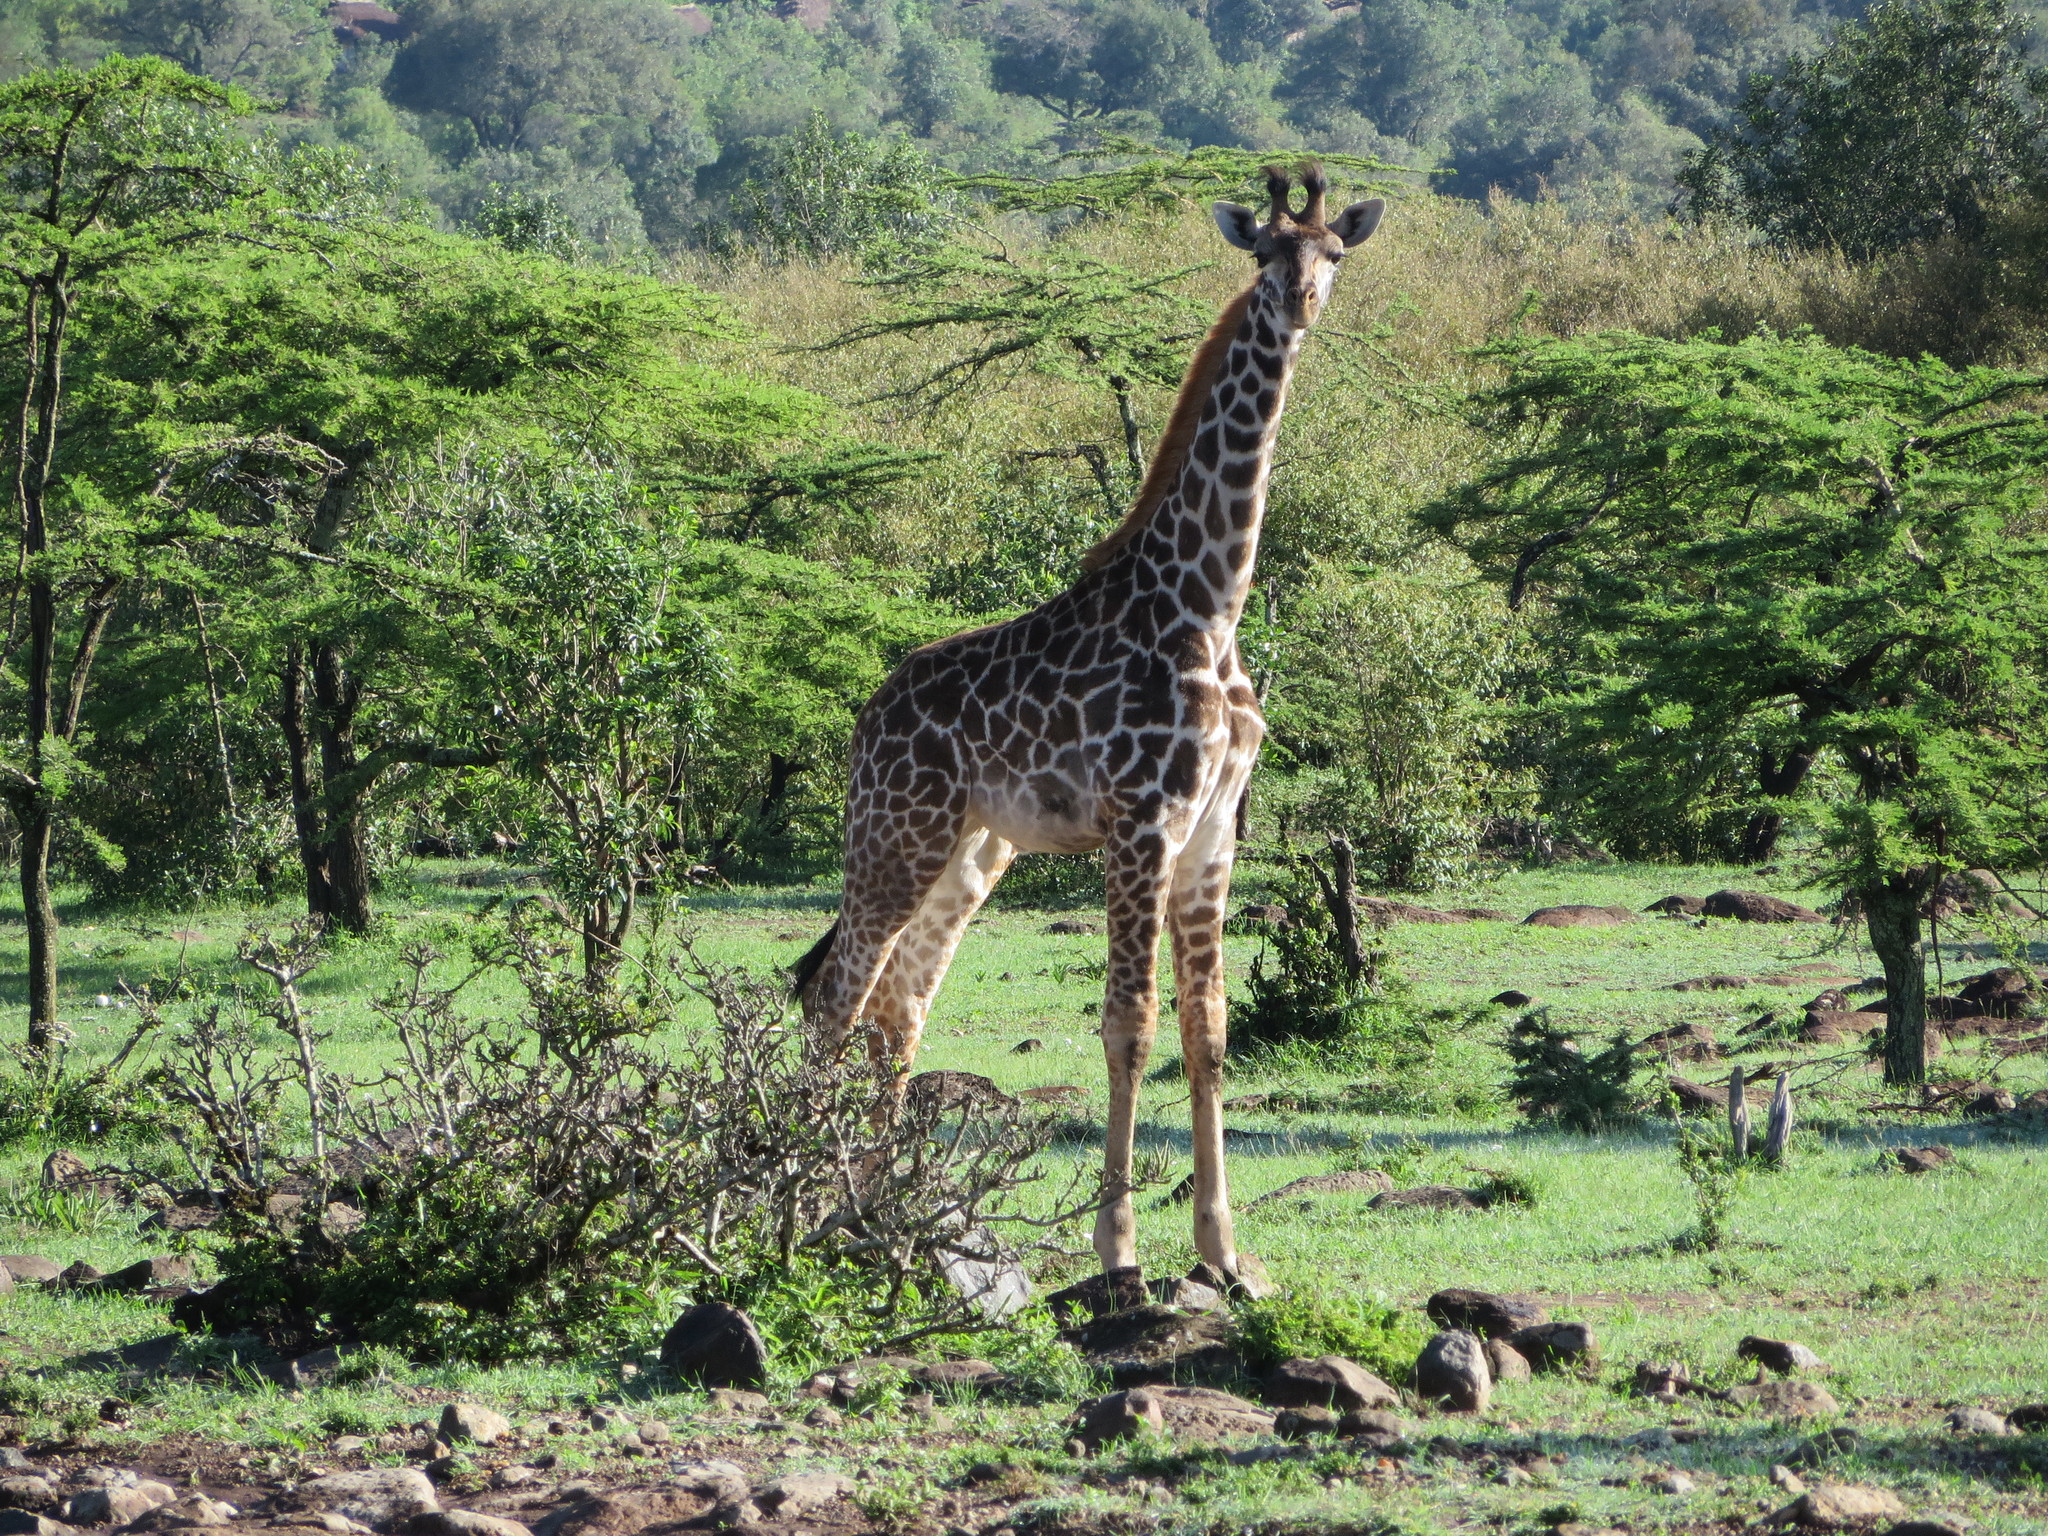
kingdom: Animalia
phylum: Chordata
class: Mammalia
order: Artiodactyla
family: Giraffidae
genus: Giraffa
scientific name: Giraffa tippelskirchi
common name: Masai giraffe
